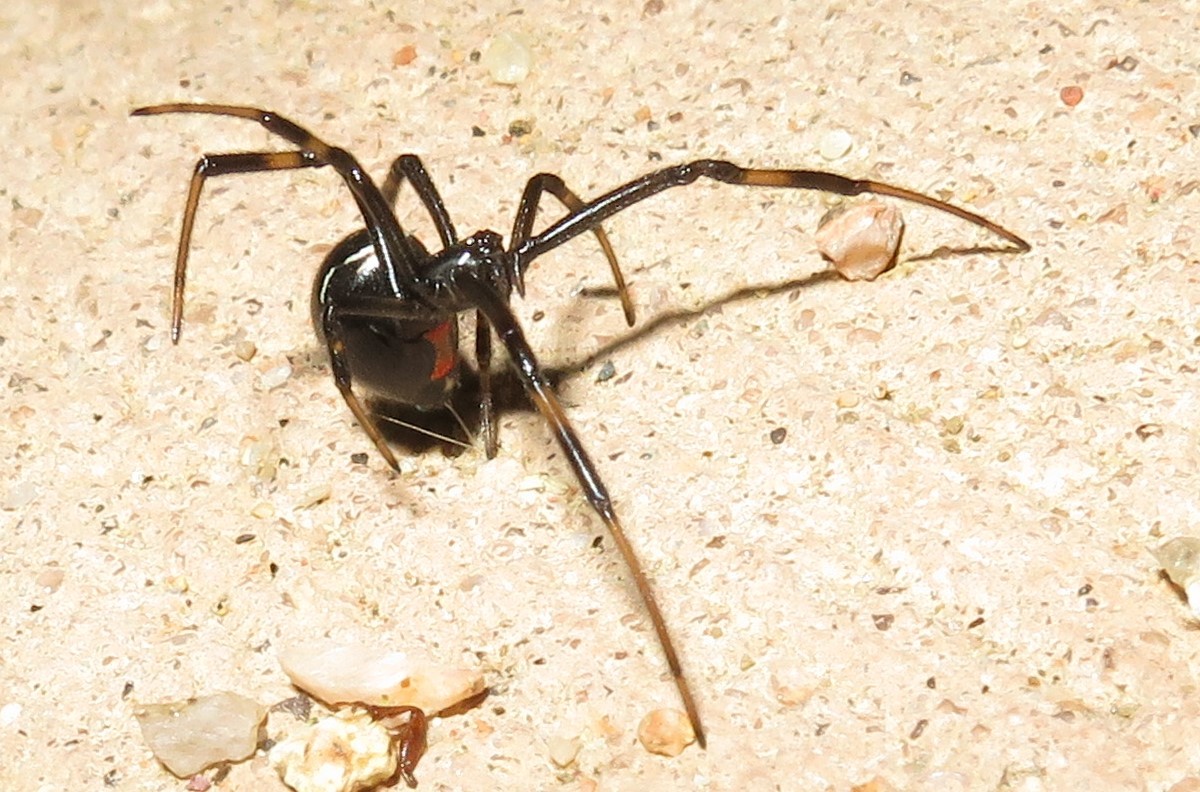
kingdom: Animalia
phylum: Arthropoda
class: Arachnida
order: Araneae
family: Theridiidae
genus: Latrodectus
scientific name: Latrodectus hesperus
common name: Western black widow
